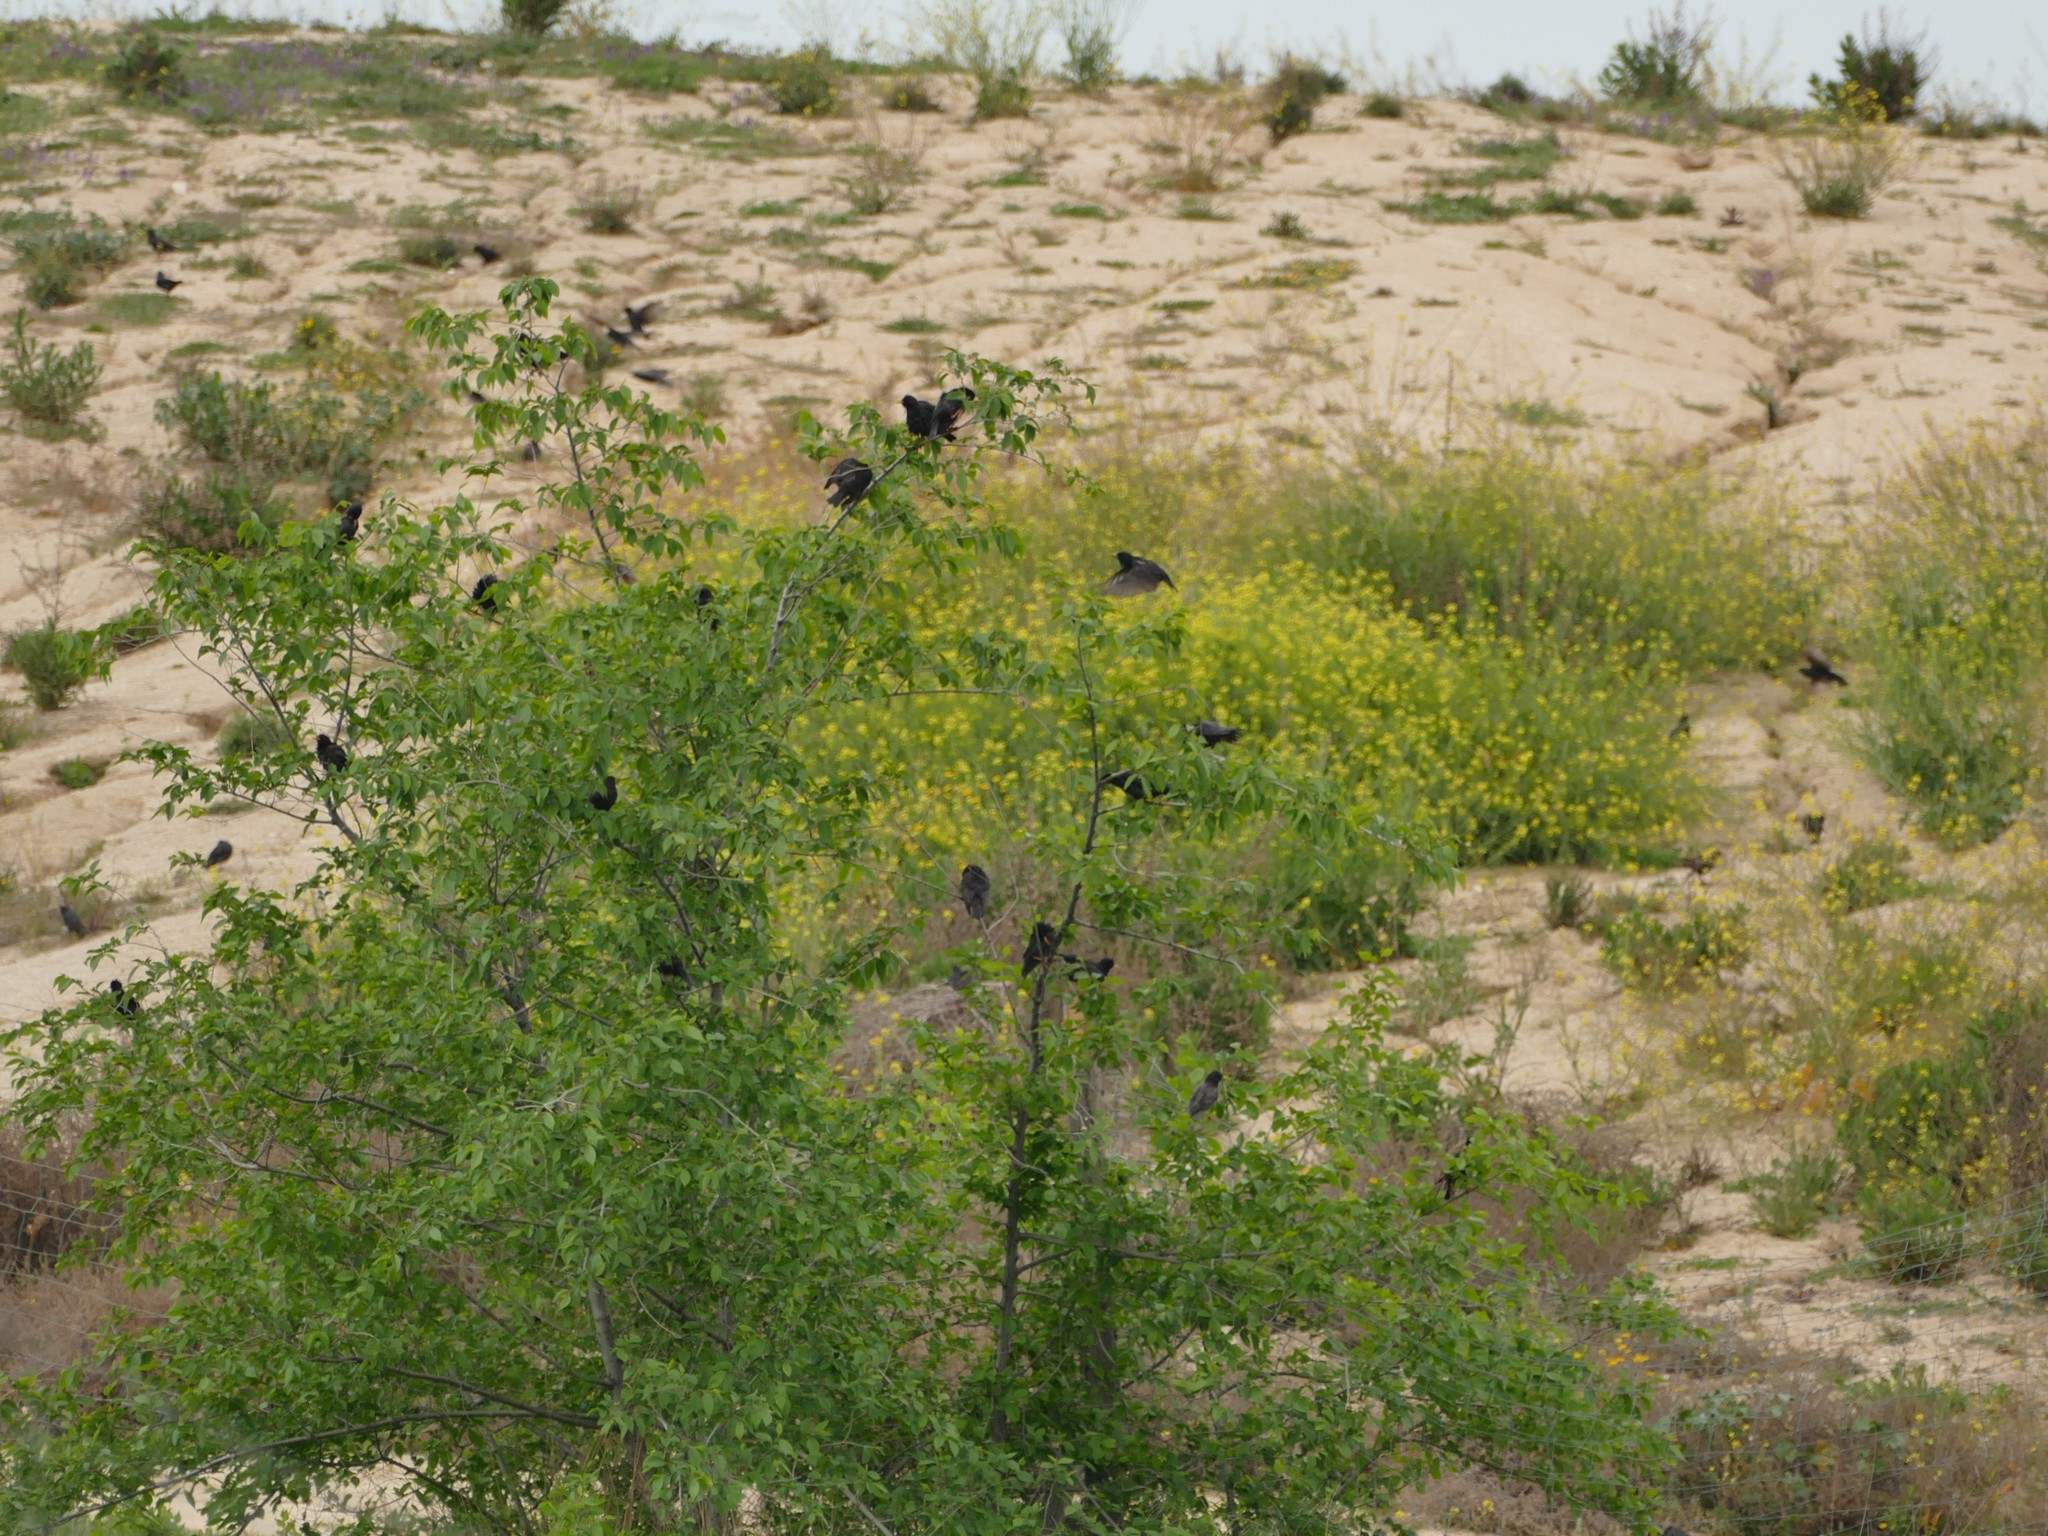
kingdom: Animalia
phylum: Chordata
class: Aves
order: Passeriformes
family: Sturnidae
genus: Sturnus
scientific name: Sturnus unicolor
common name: Spotless starling
